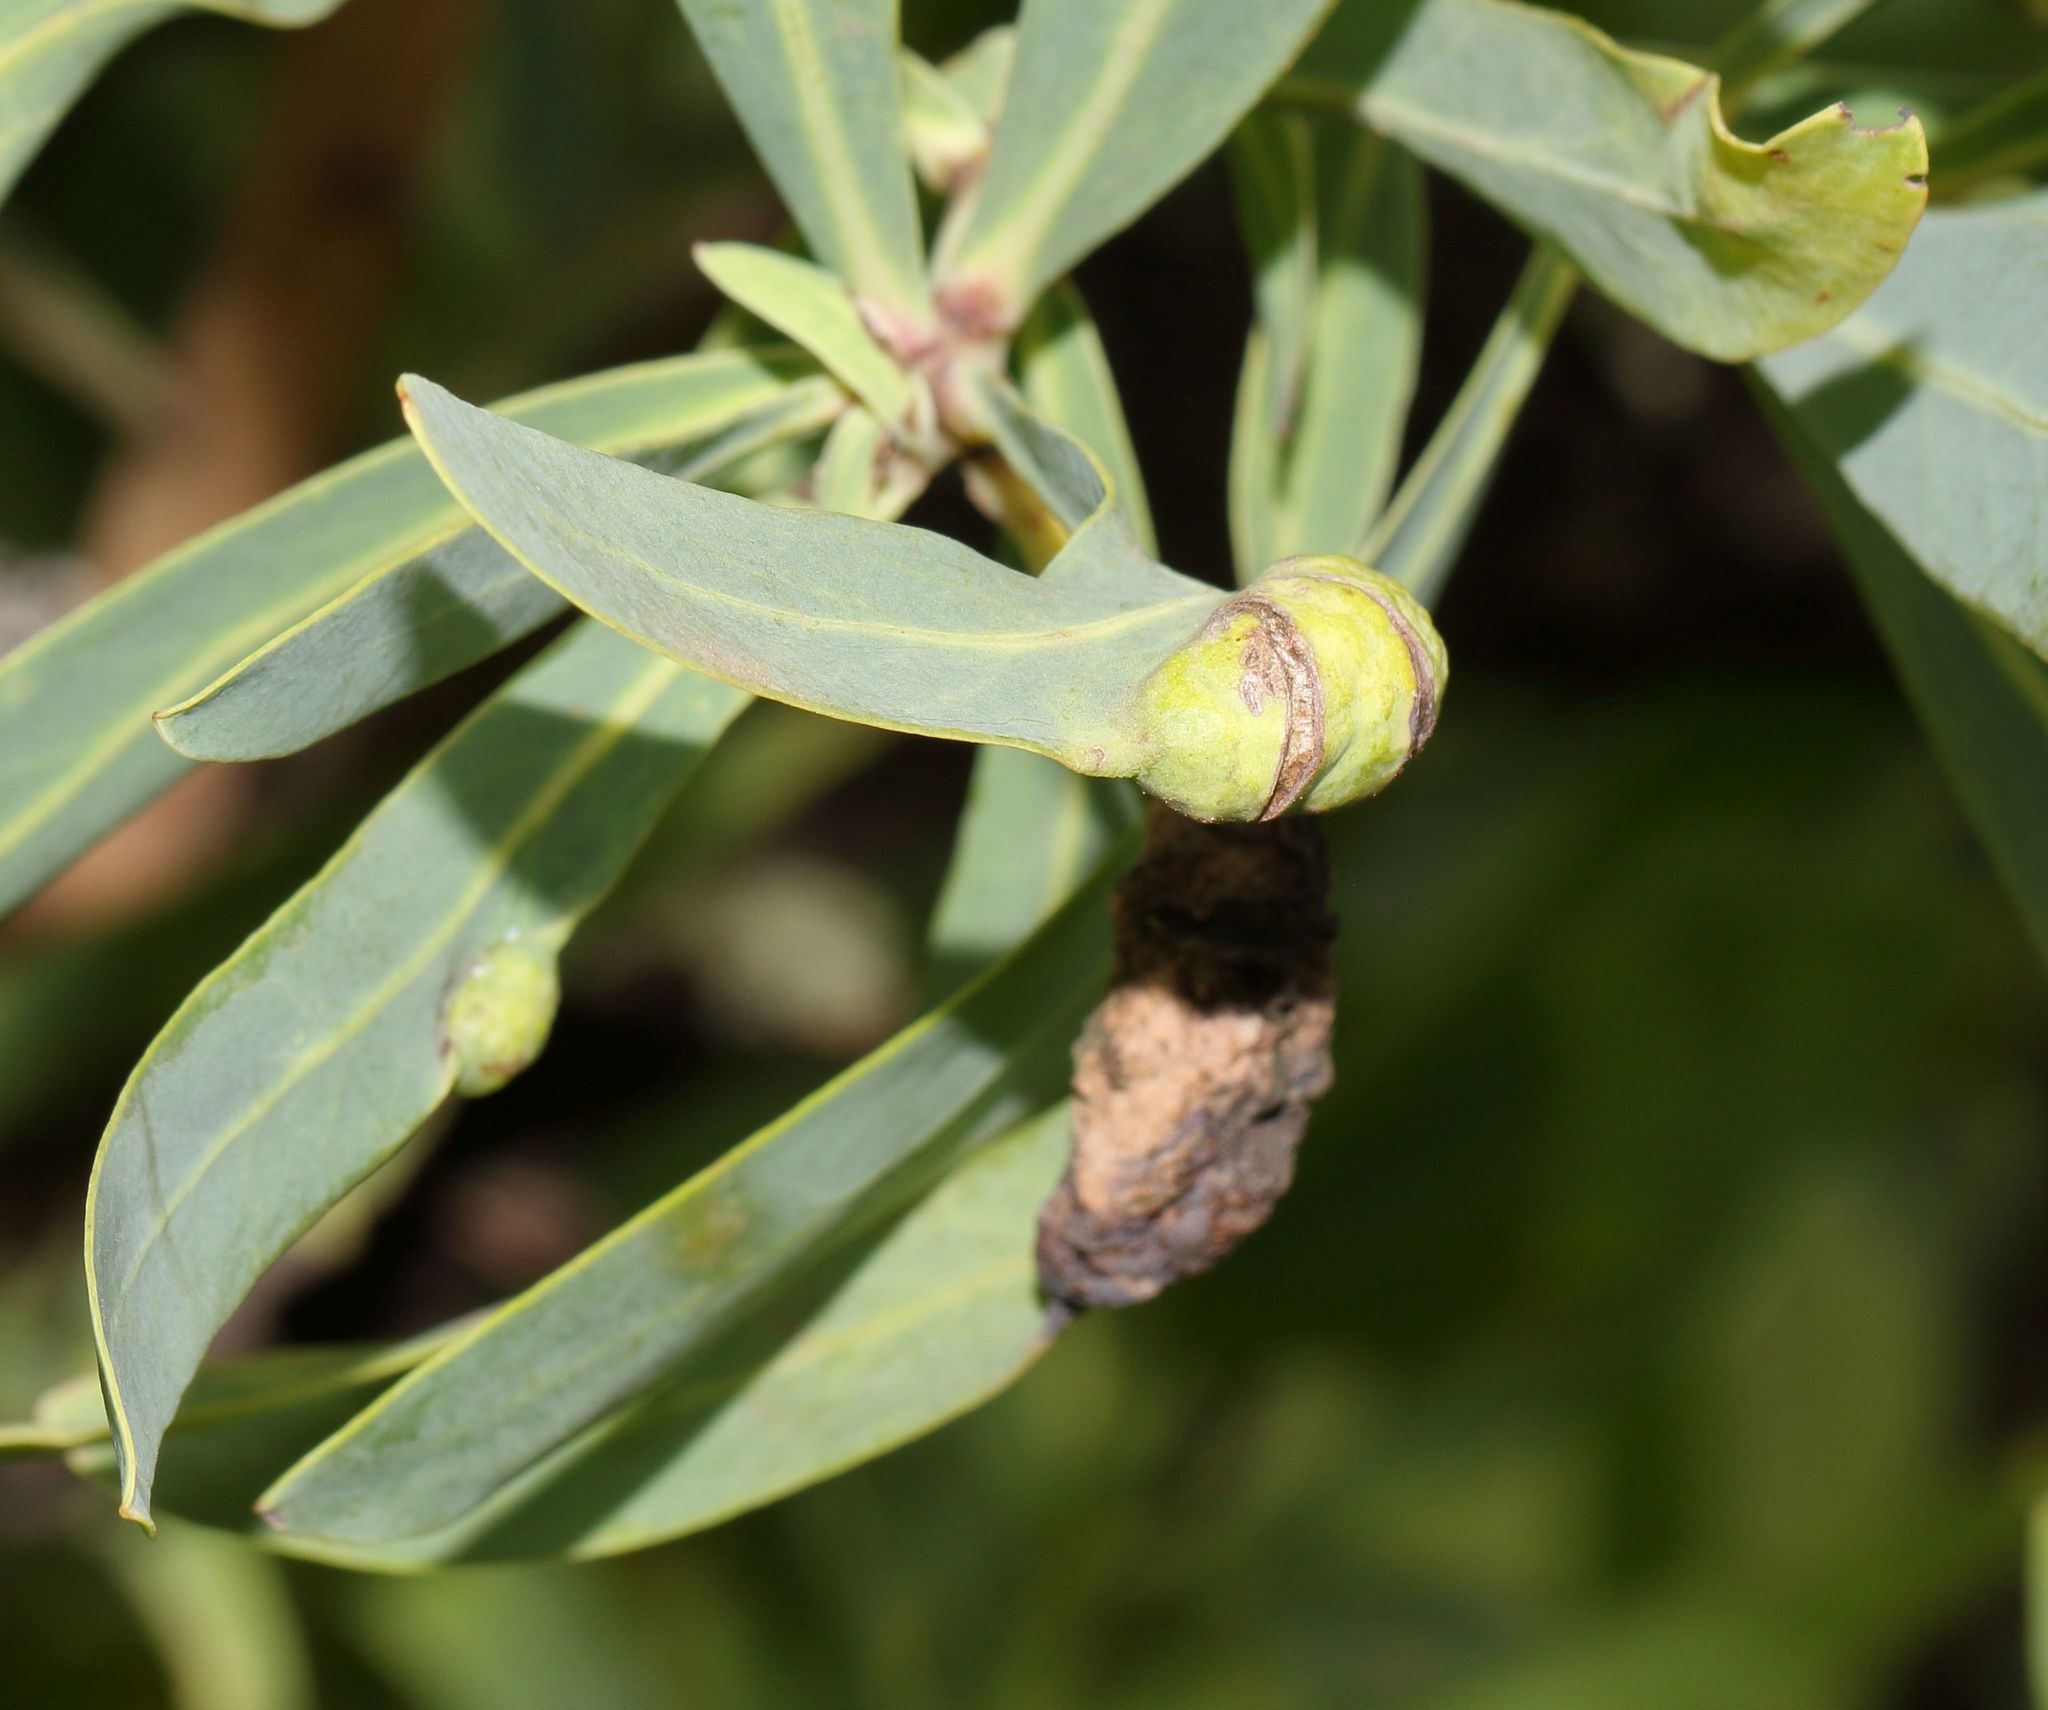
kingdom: Plantae
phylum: Tracheophyta
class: Magnoliopsida
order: Proteales
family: Proteaceae
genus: Protea
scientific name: Protea caffra
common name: Common sugarbush
